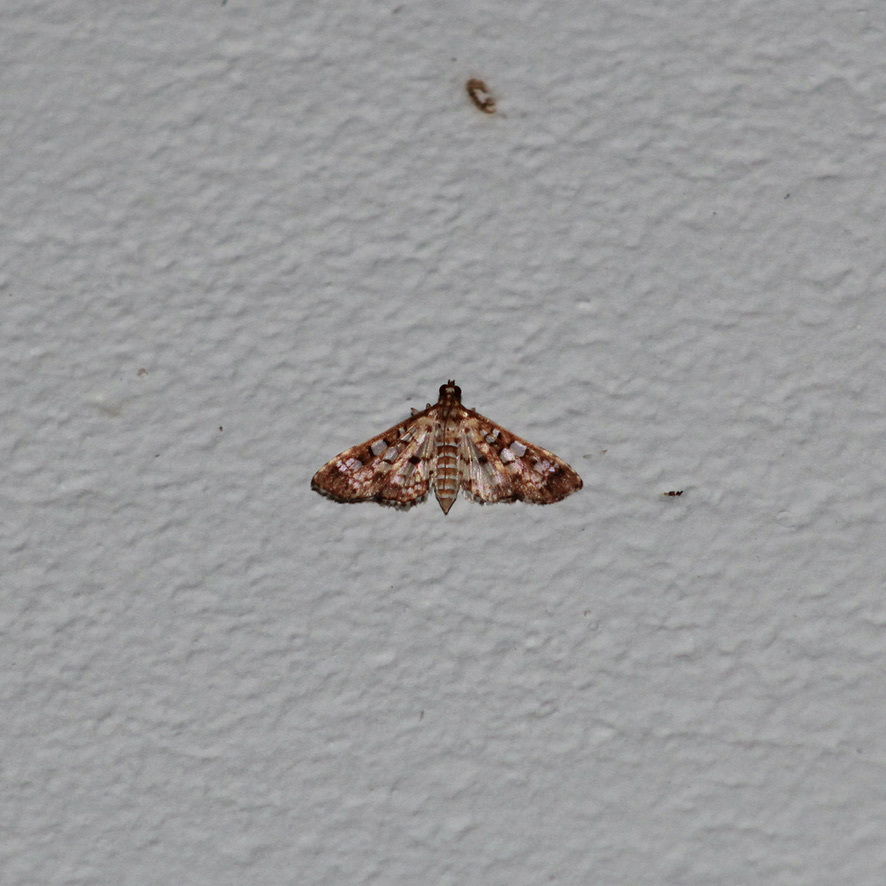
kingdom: Animalia
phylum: Arthropoda
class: Insecta
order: Lepidoptera
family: Crambidae
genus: Samea
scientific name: Samea ecclesialis
